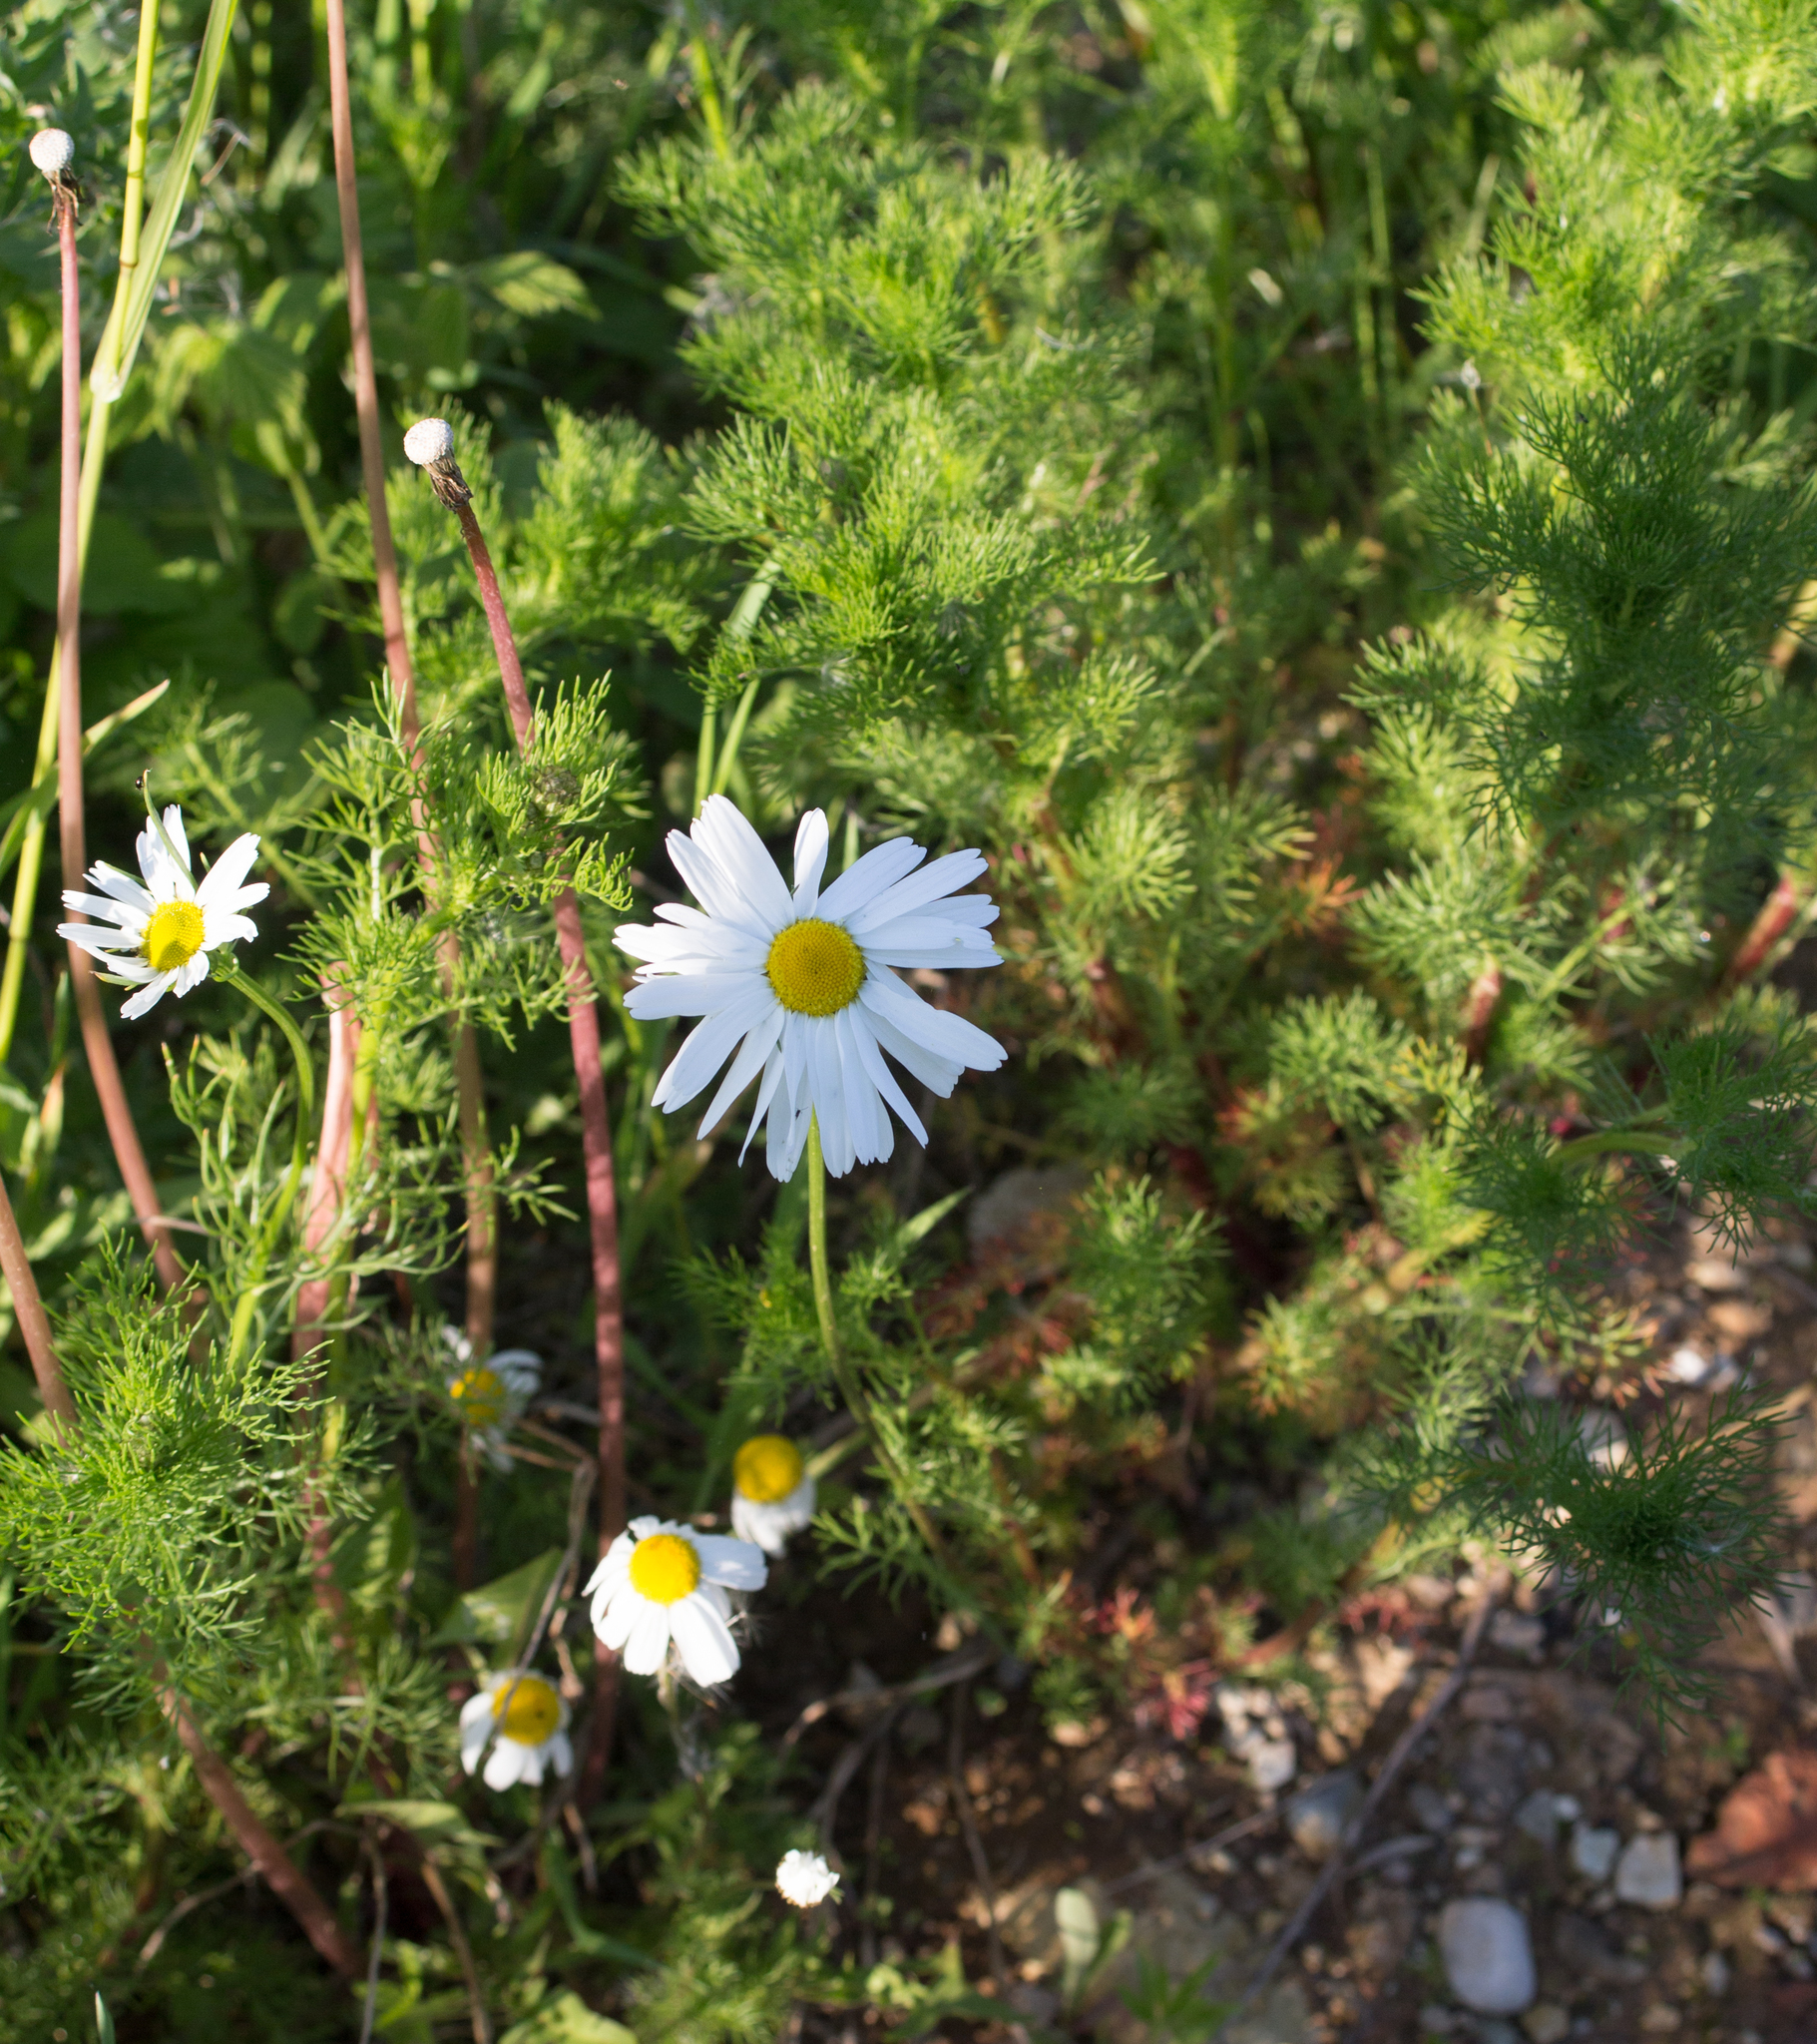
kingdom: Plantae
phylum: Tracheophyta
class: Magnoliopsida
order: Asterales
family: Asteraceae
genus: Tripleurospermum
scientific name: Tripleurospermum inodorum
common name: Scentless mayweed
